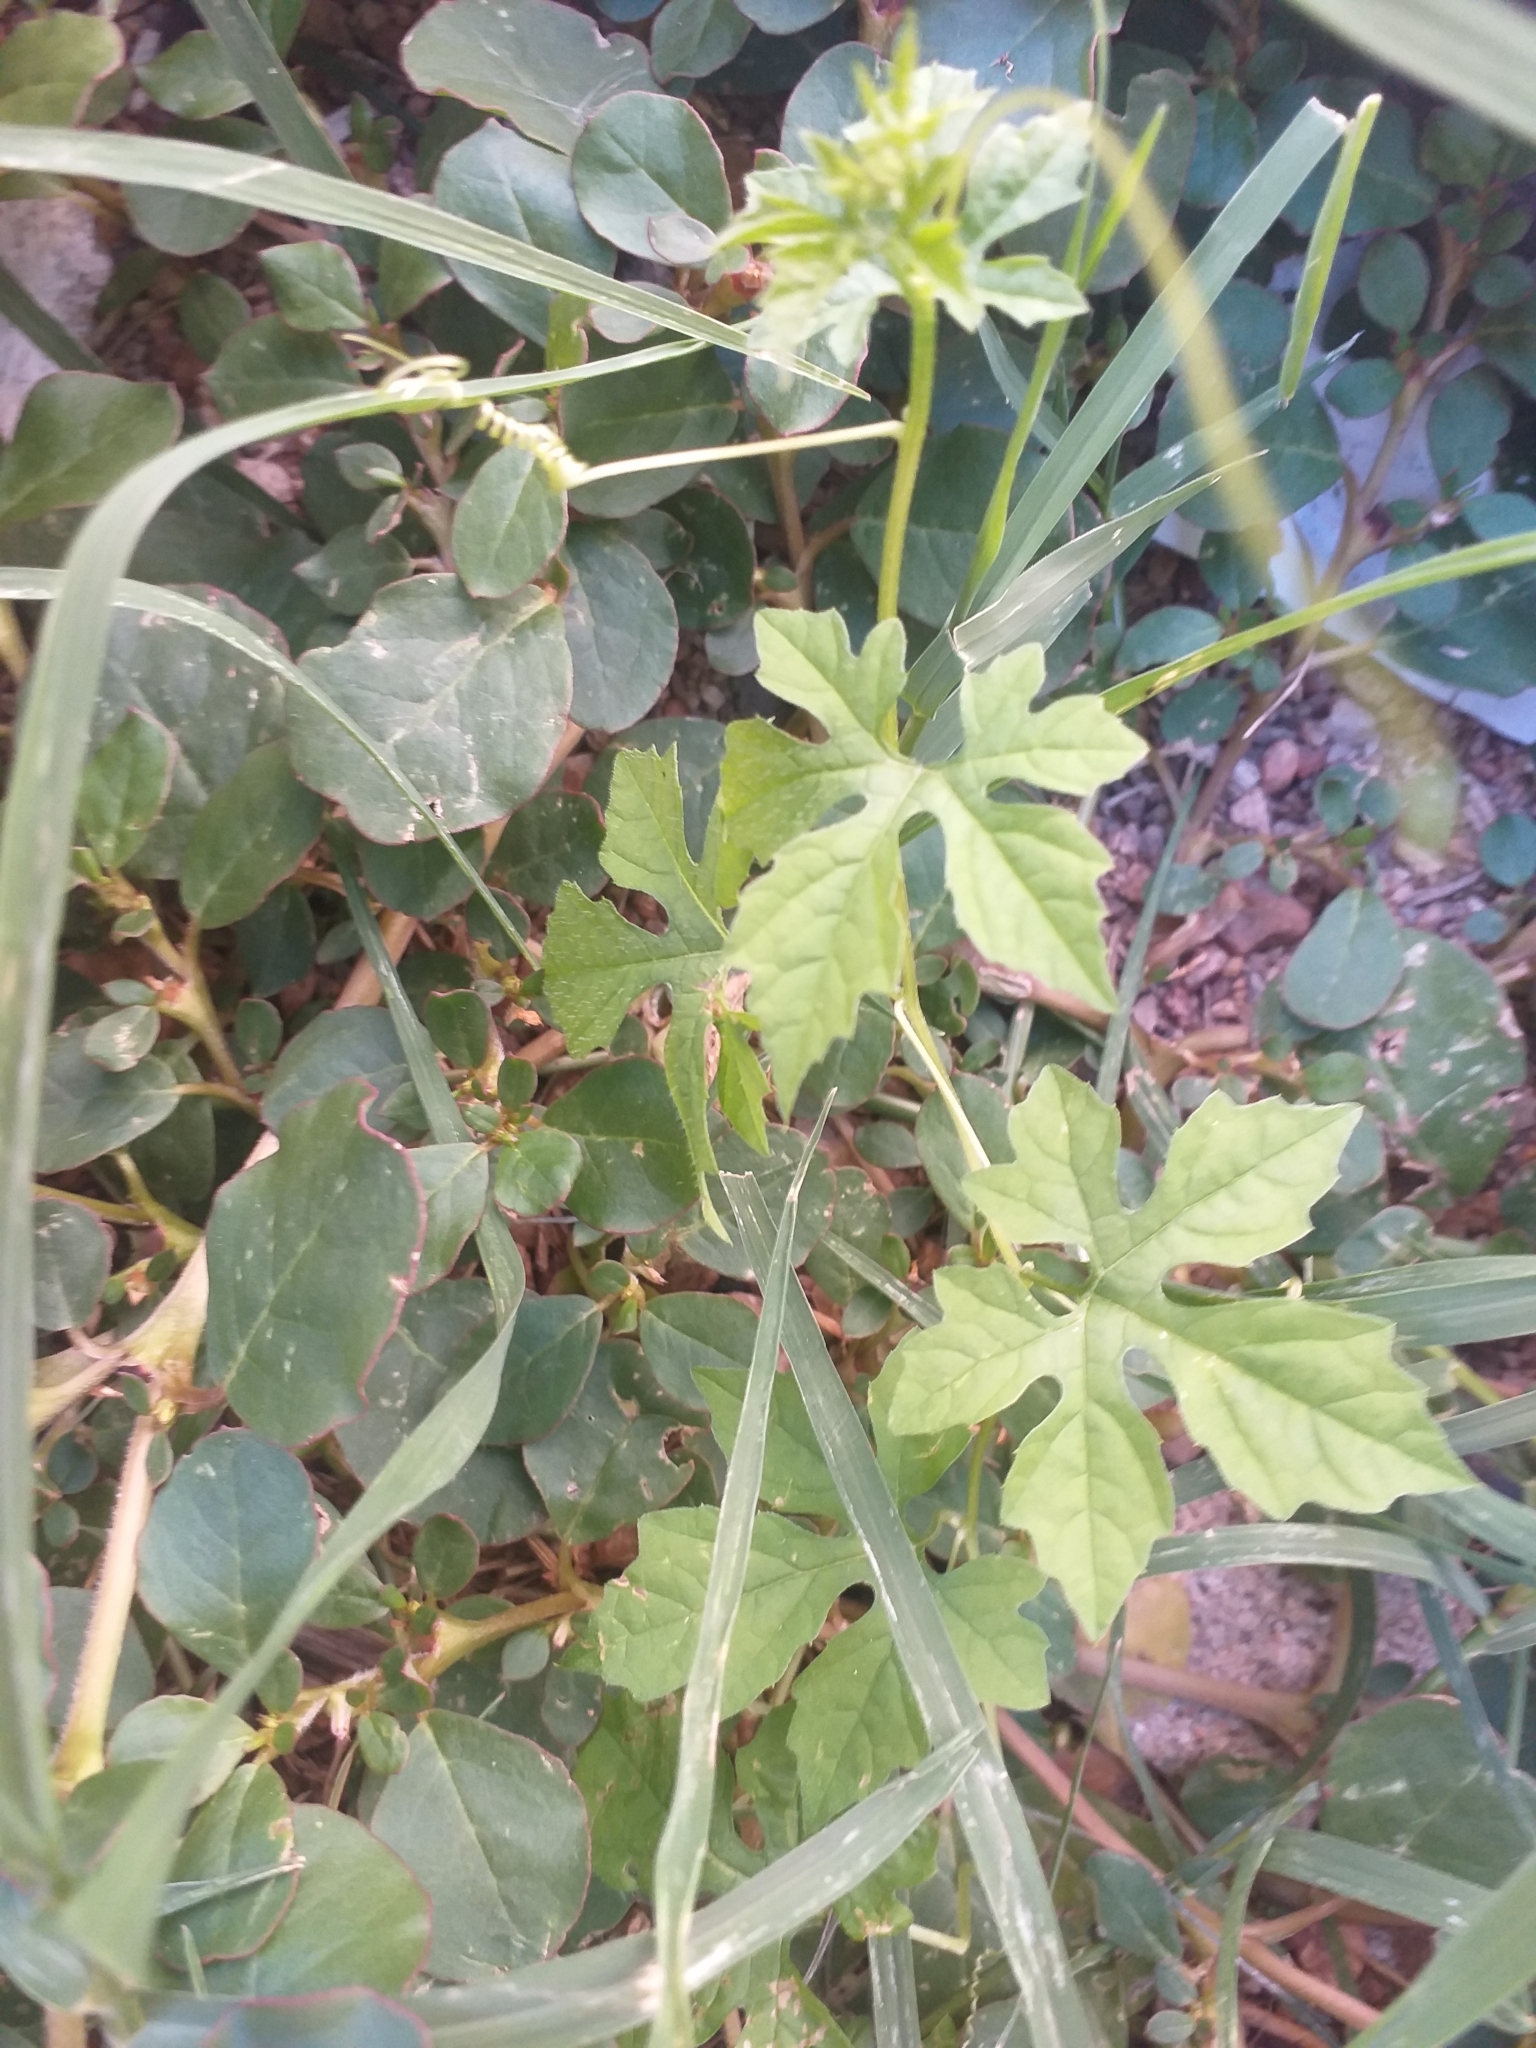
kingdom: Plantae
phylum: Tracheophyta
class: Magnoliopsida
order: Cucurbitales
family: Cucurbitaceae
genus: Momordica
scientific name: Momordica charantia
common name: Balsampear
